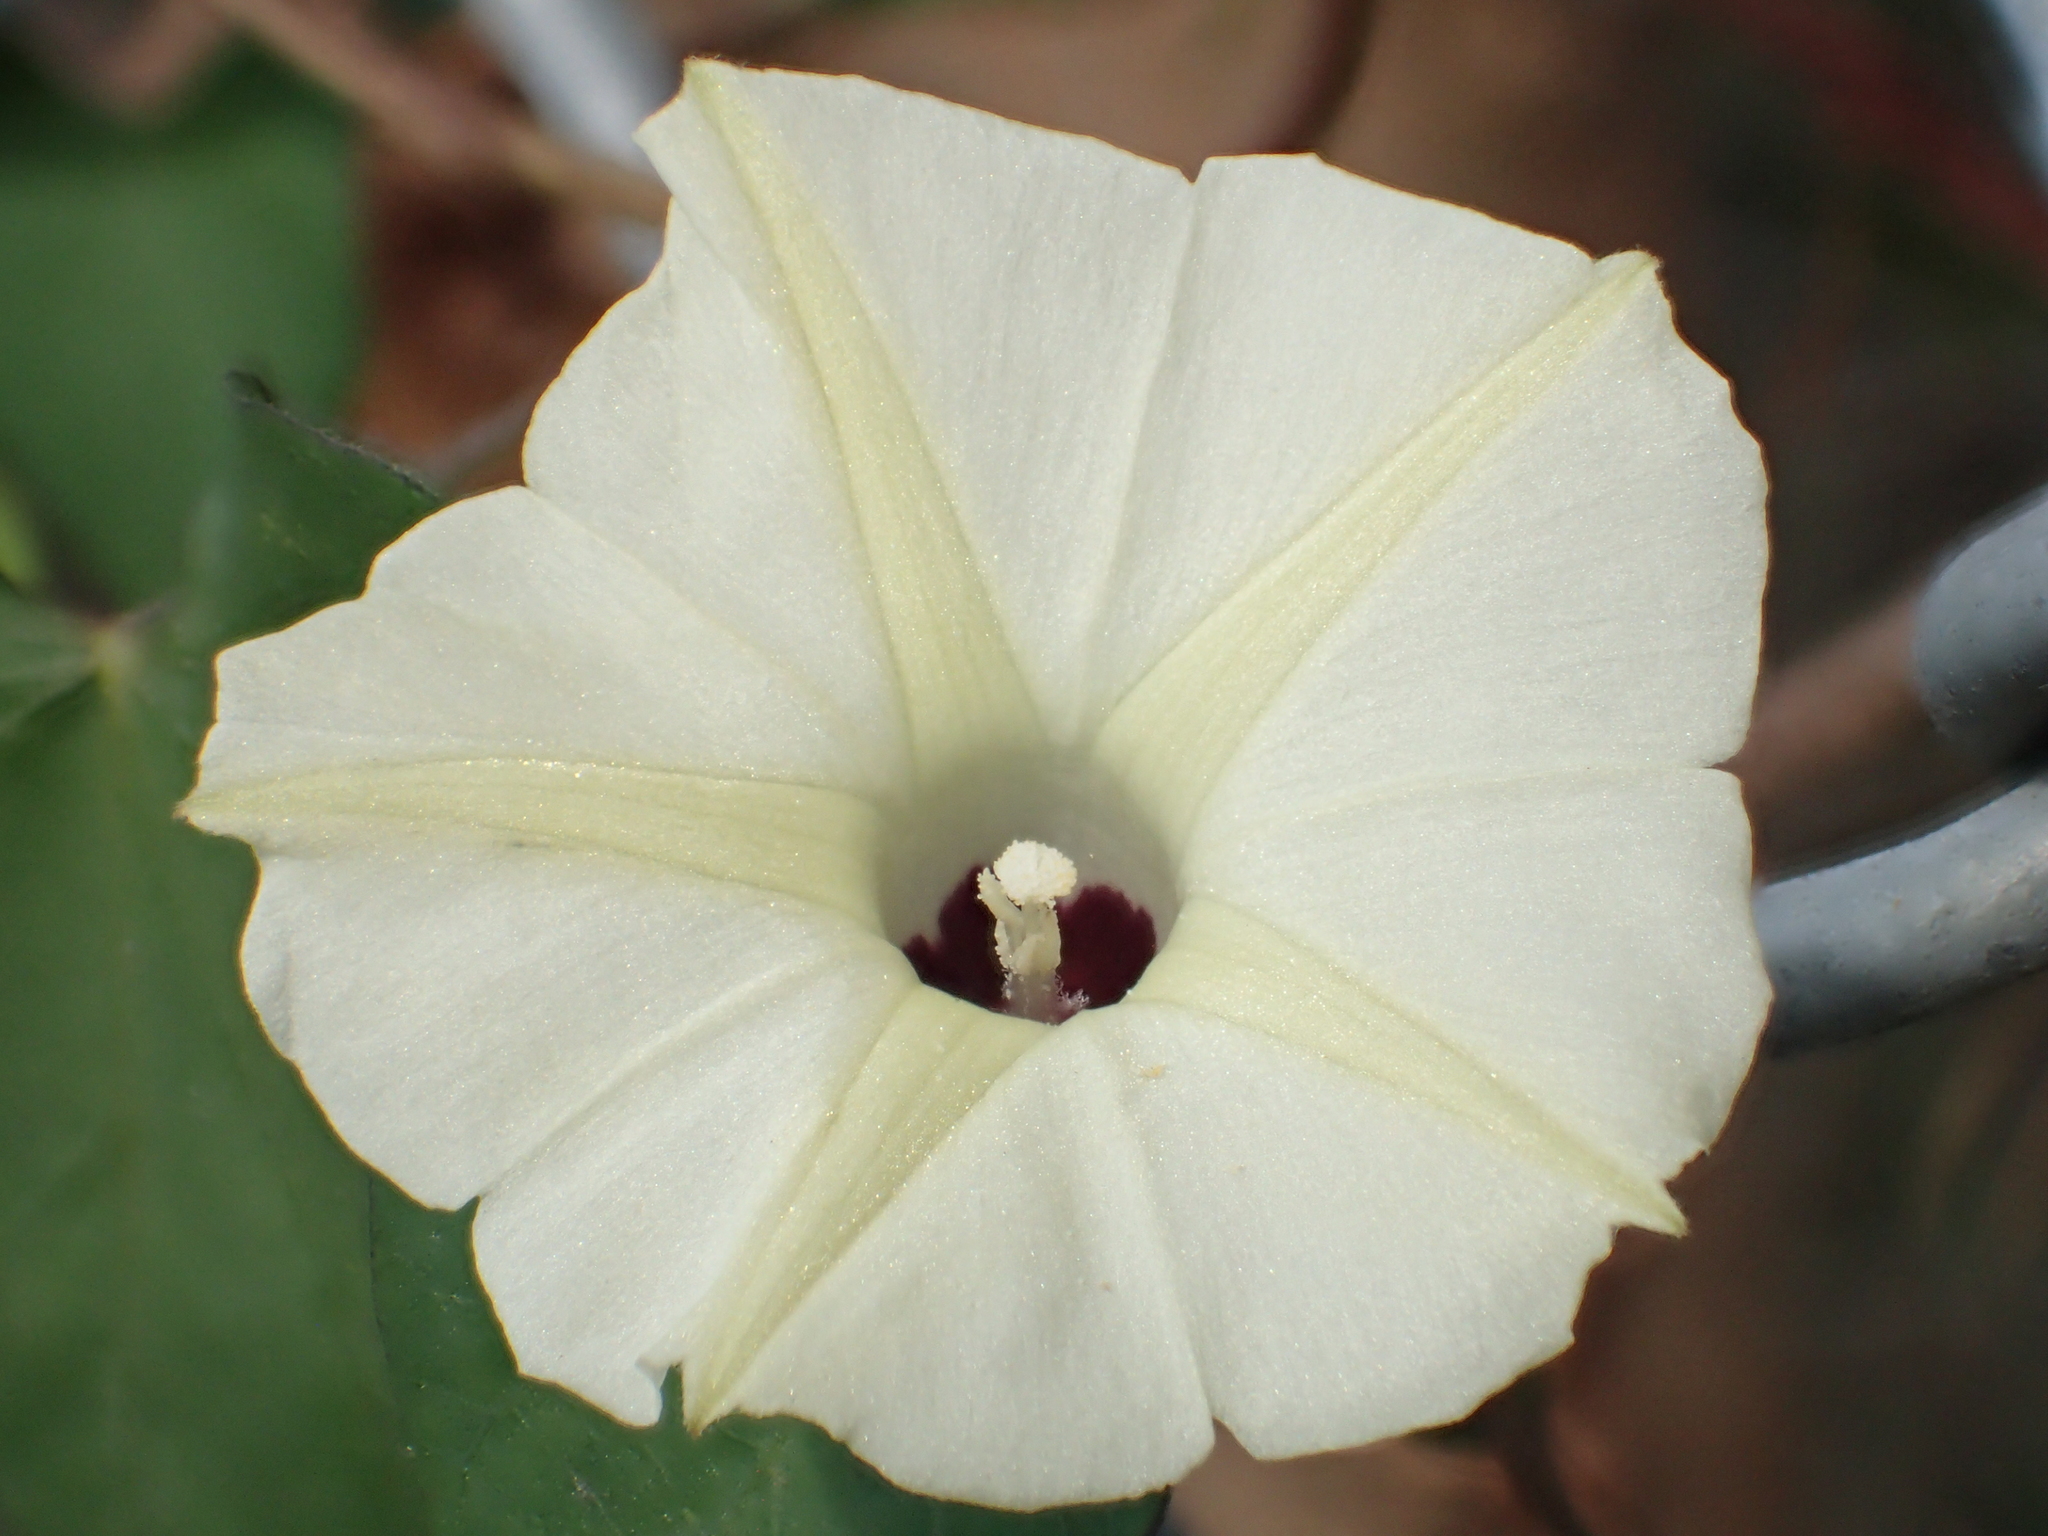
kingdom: Plantae
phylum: Tracheophyta
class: Magnoliopsida
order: Solanales
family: Convolvulaceae
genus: Ipomoea
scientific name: Ipomoea obscura
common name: Obscure morning-glory
